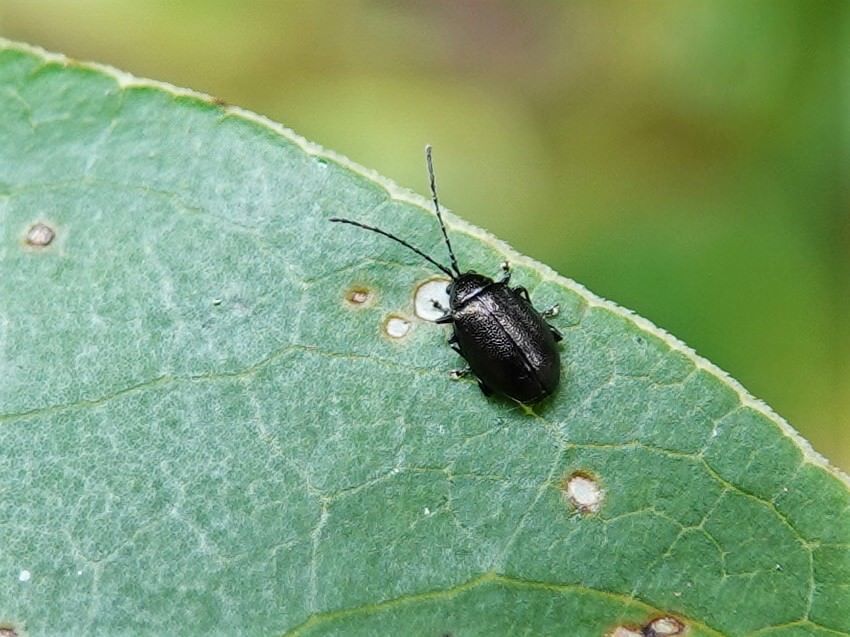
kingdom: Animalia
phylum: Arthropoda
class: Insecta
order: Coleoptera
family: Chrysomelidae
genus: Pleuraltica
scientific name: Pleuraltica cyanea
